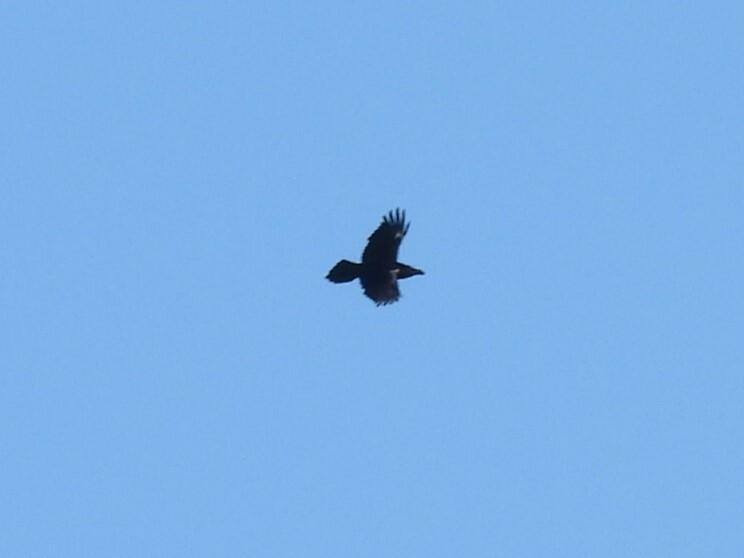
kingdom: Animalia
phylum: Chordata
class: Aves
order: Passeriformes
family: Corvidae
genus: Corvus
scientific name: Corvus corax
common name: Common raven
